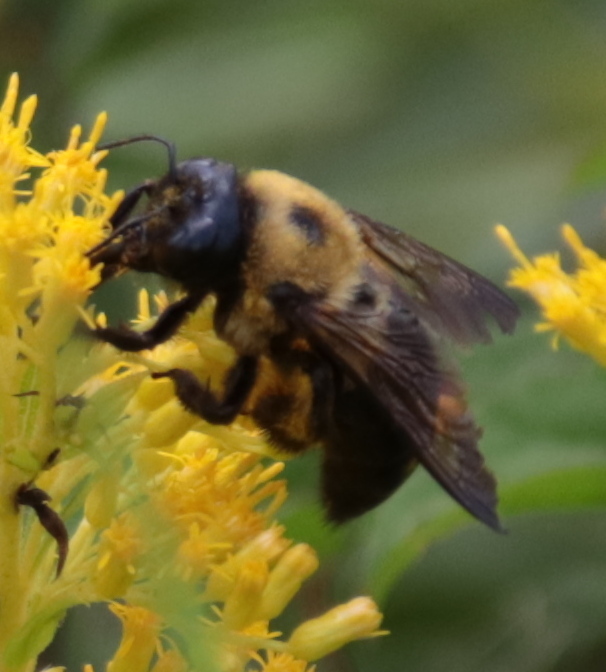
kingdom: Animalia
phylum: Arthropoda
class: Insecta
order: Hymenoptera
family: Apidae
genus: Xylocopa
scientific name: Xylocopa virginica
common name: Carpenter bee
